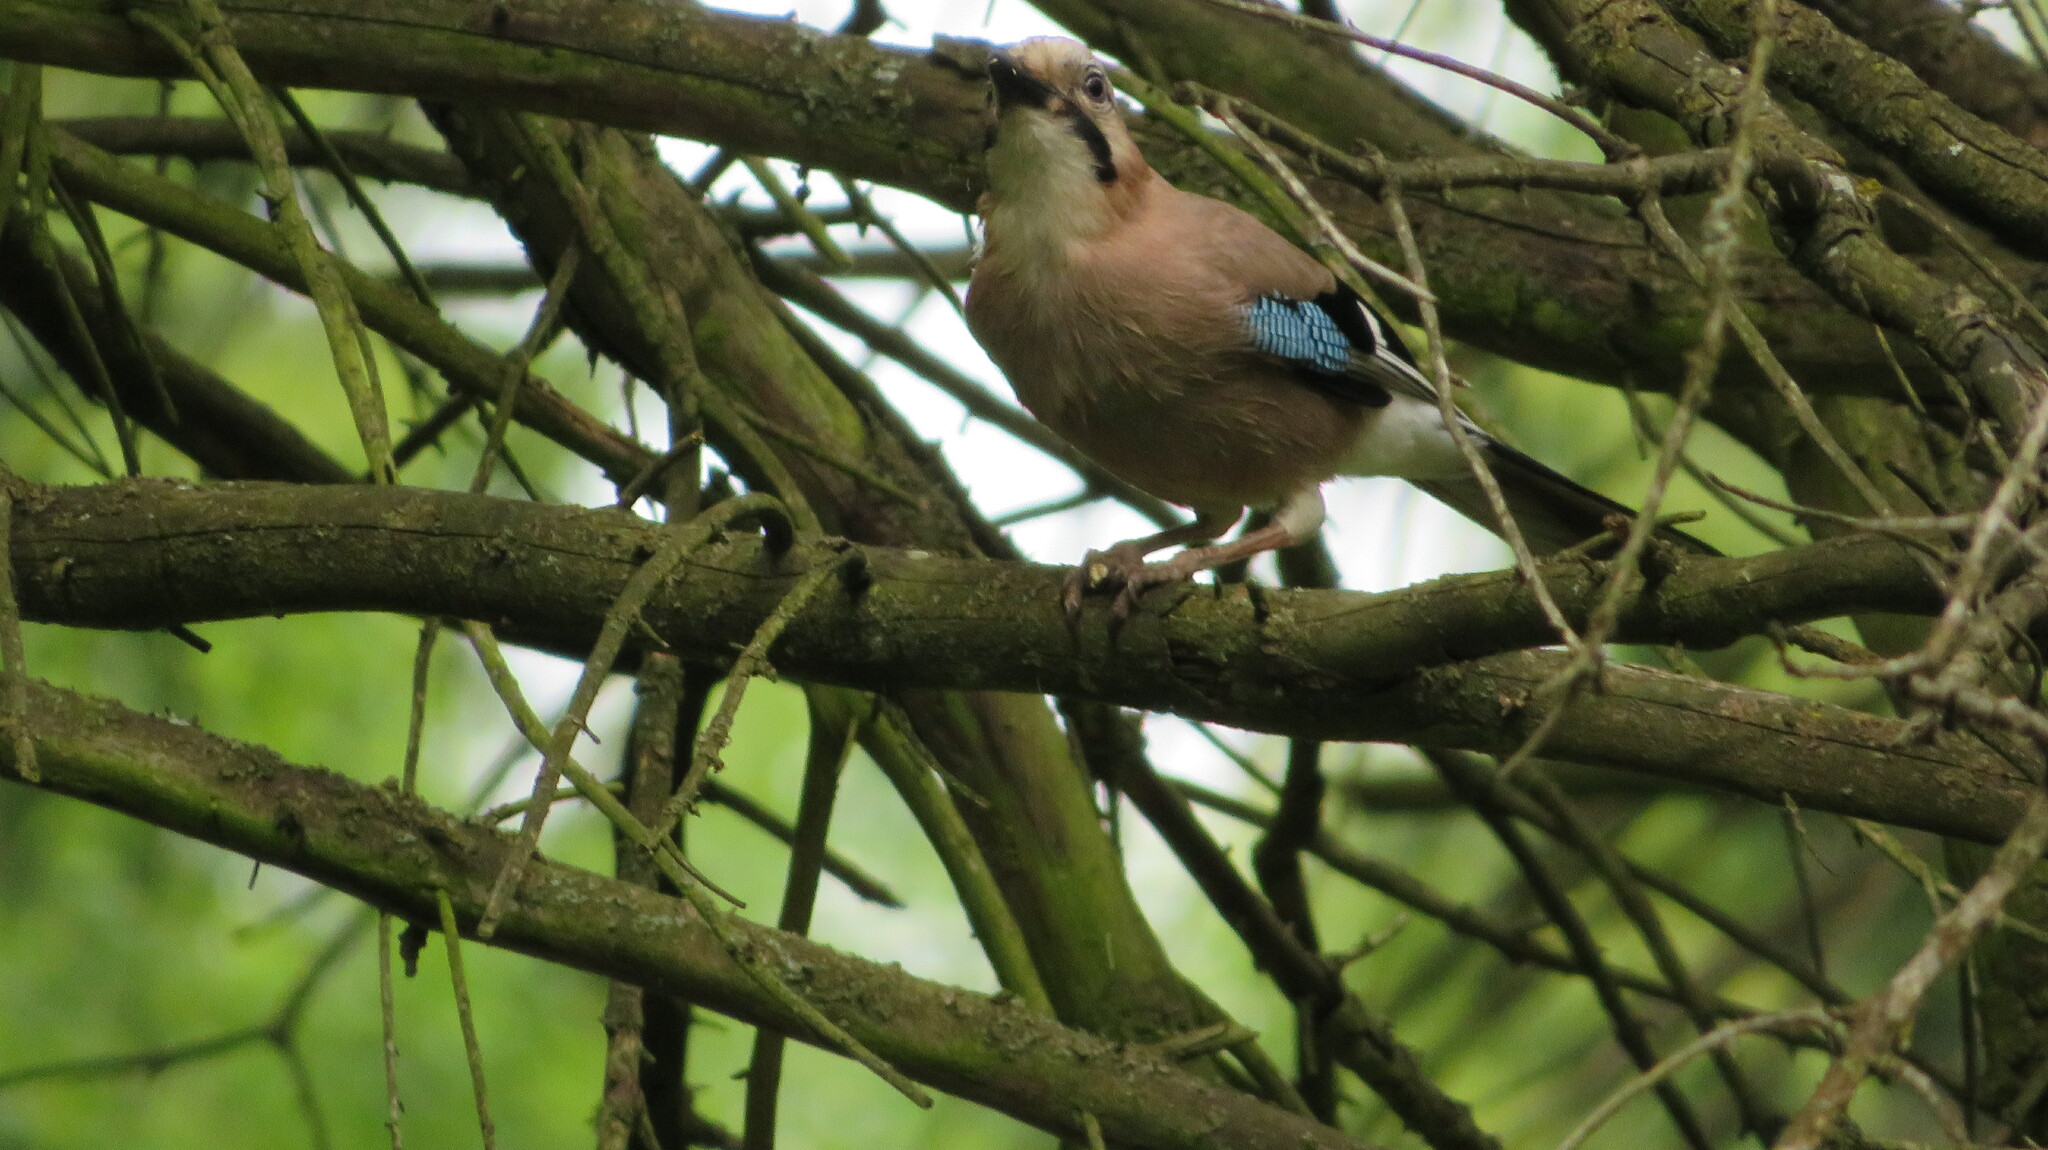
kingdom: Animalia
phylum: Chordata
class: Aves
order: Passeriformes
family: Corvidae
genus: Garrulus
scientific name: Garrulus glandarius
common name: Eurasian jay
